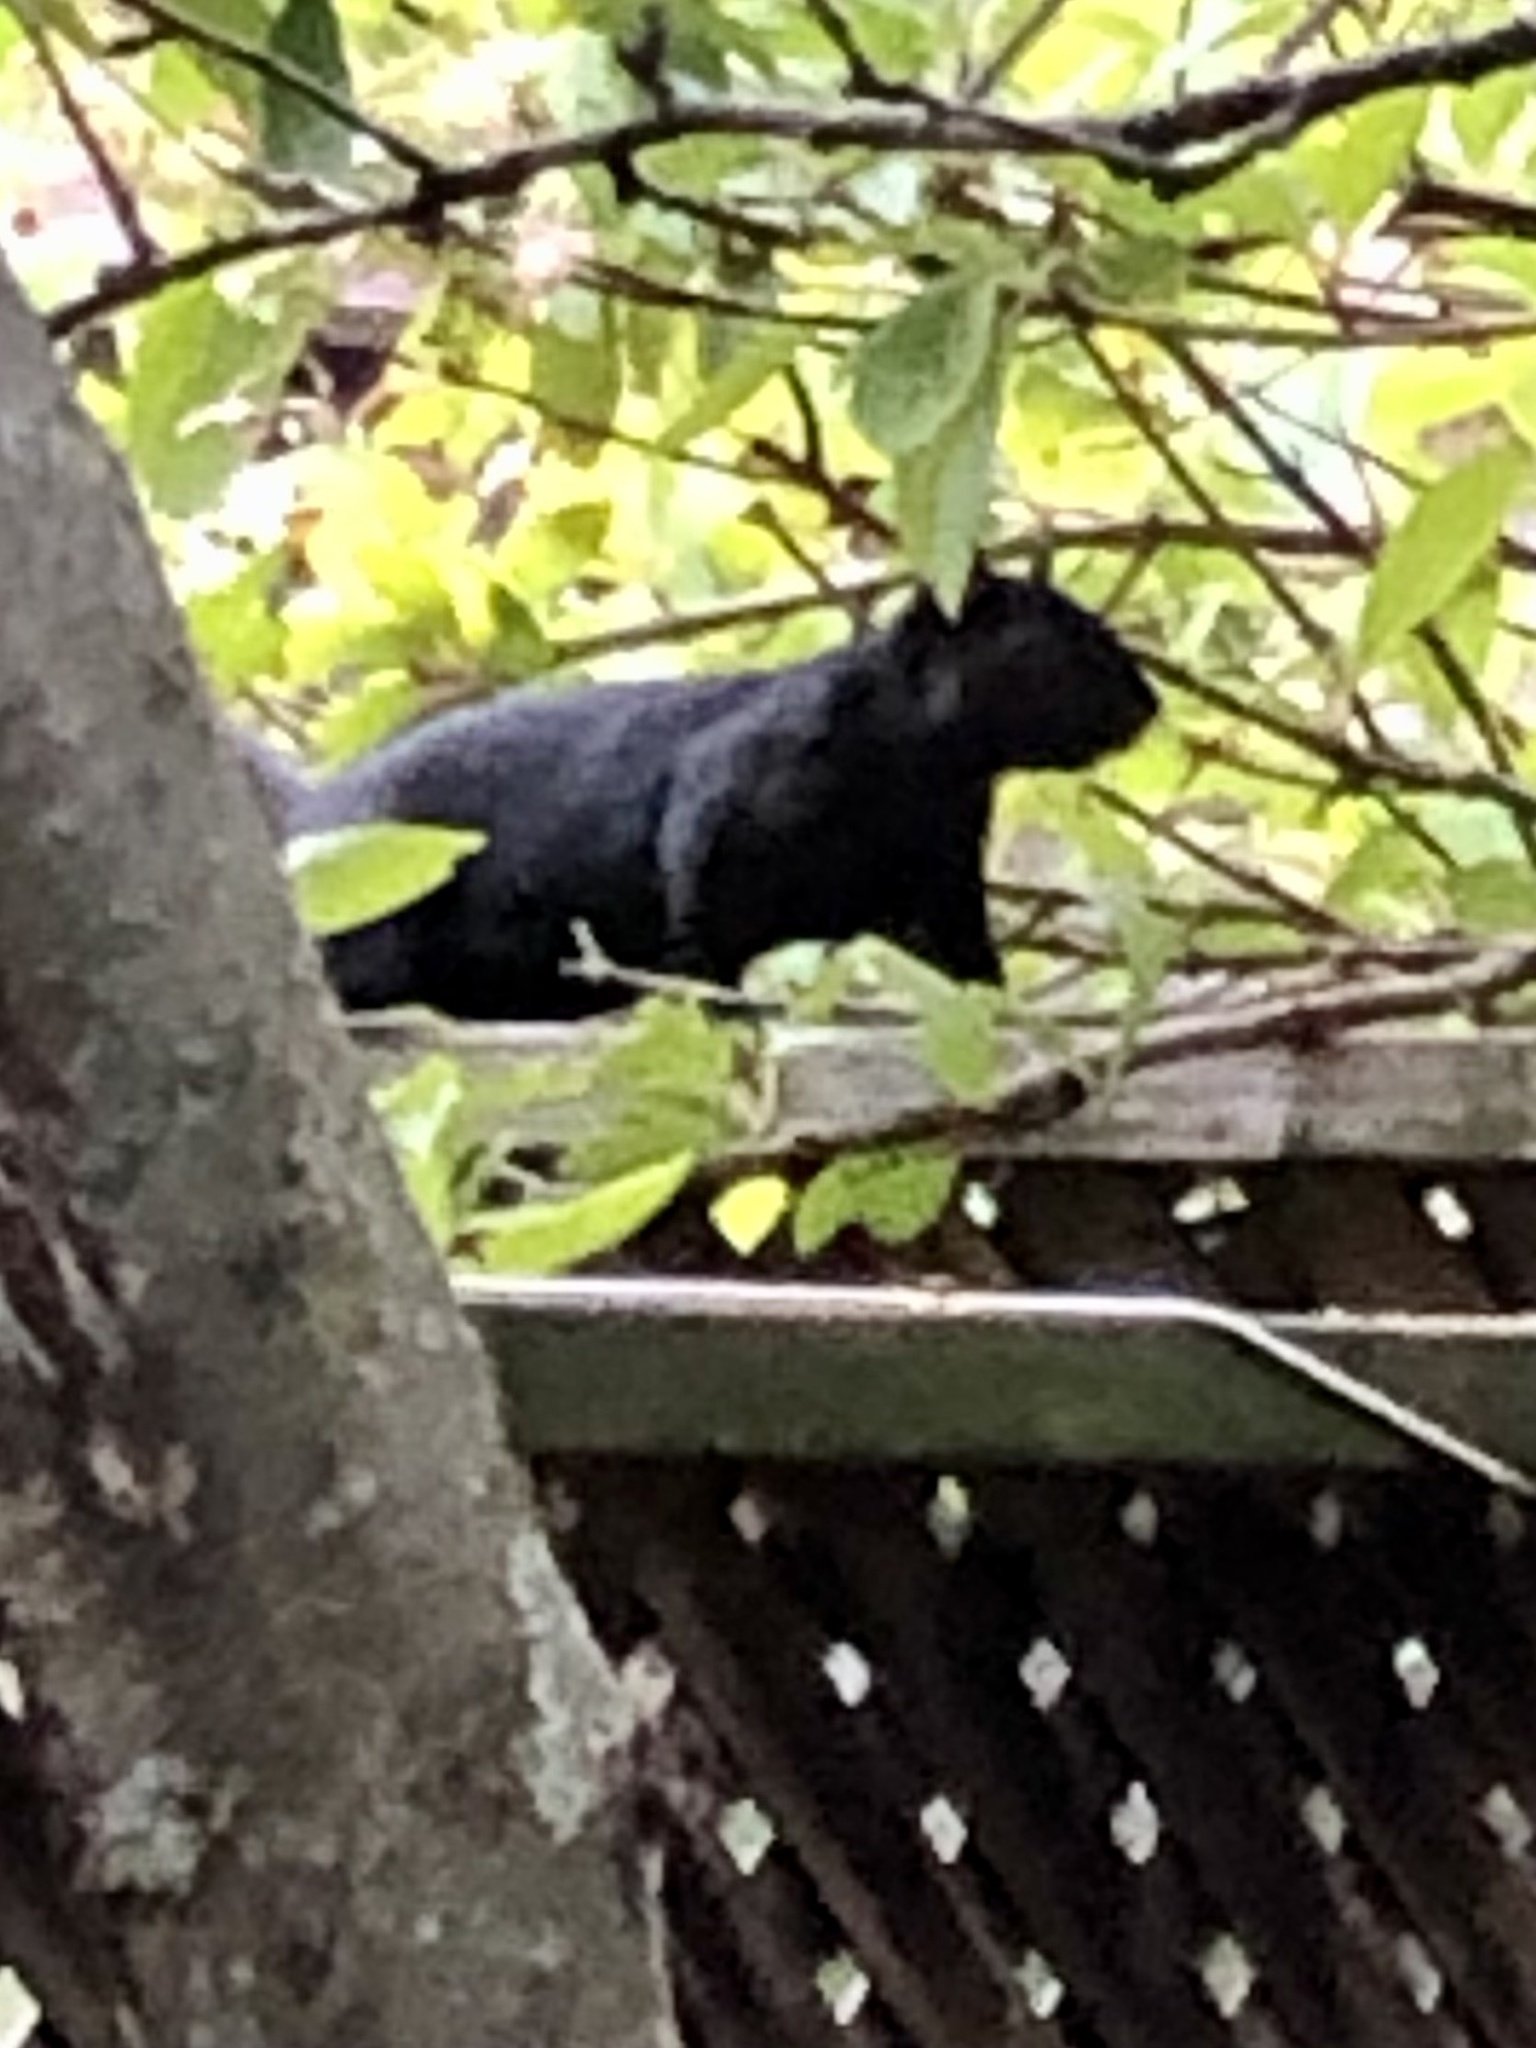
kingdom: Animalia
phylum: Chordata
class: Mammalia
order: Rodentia
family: Sciuridae
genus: Sciurus
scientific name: Sciurus carolinensis
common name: Eastern gray squirrel
